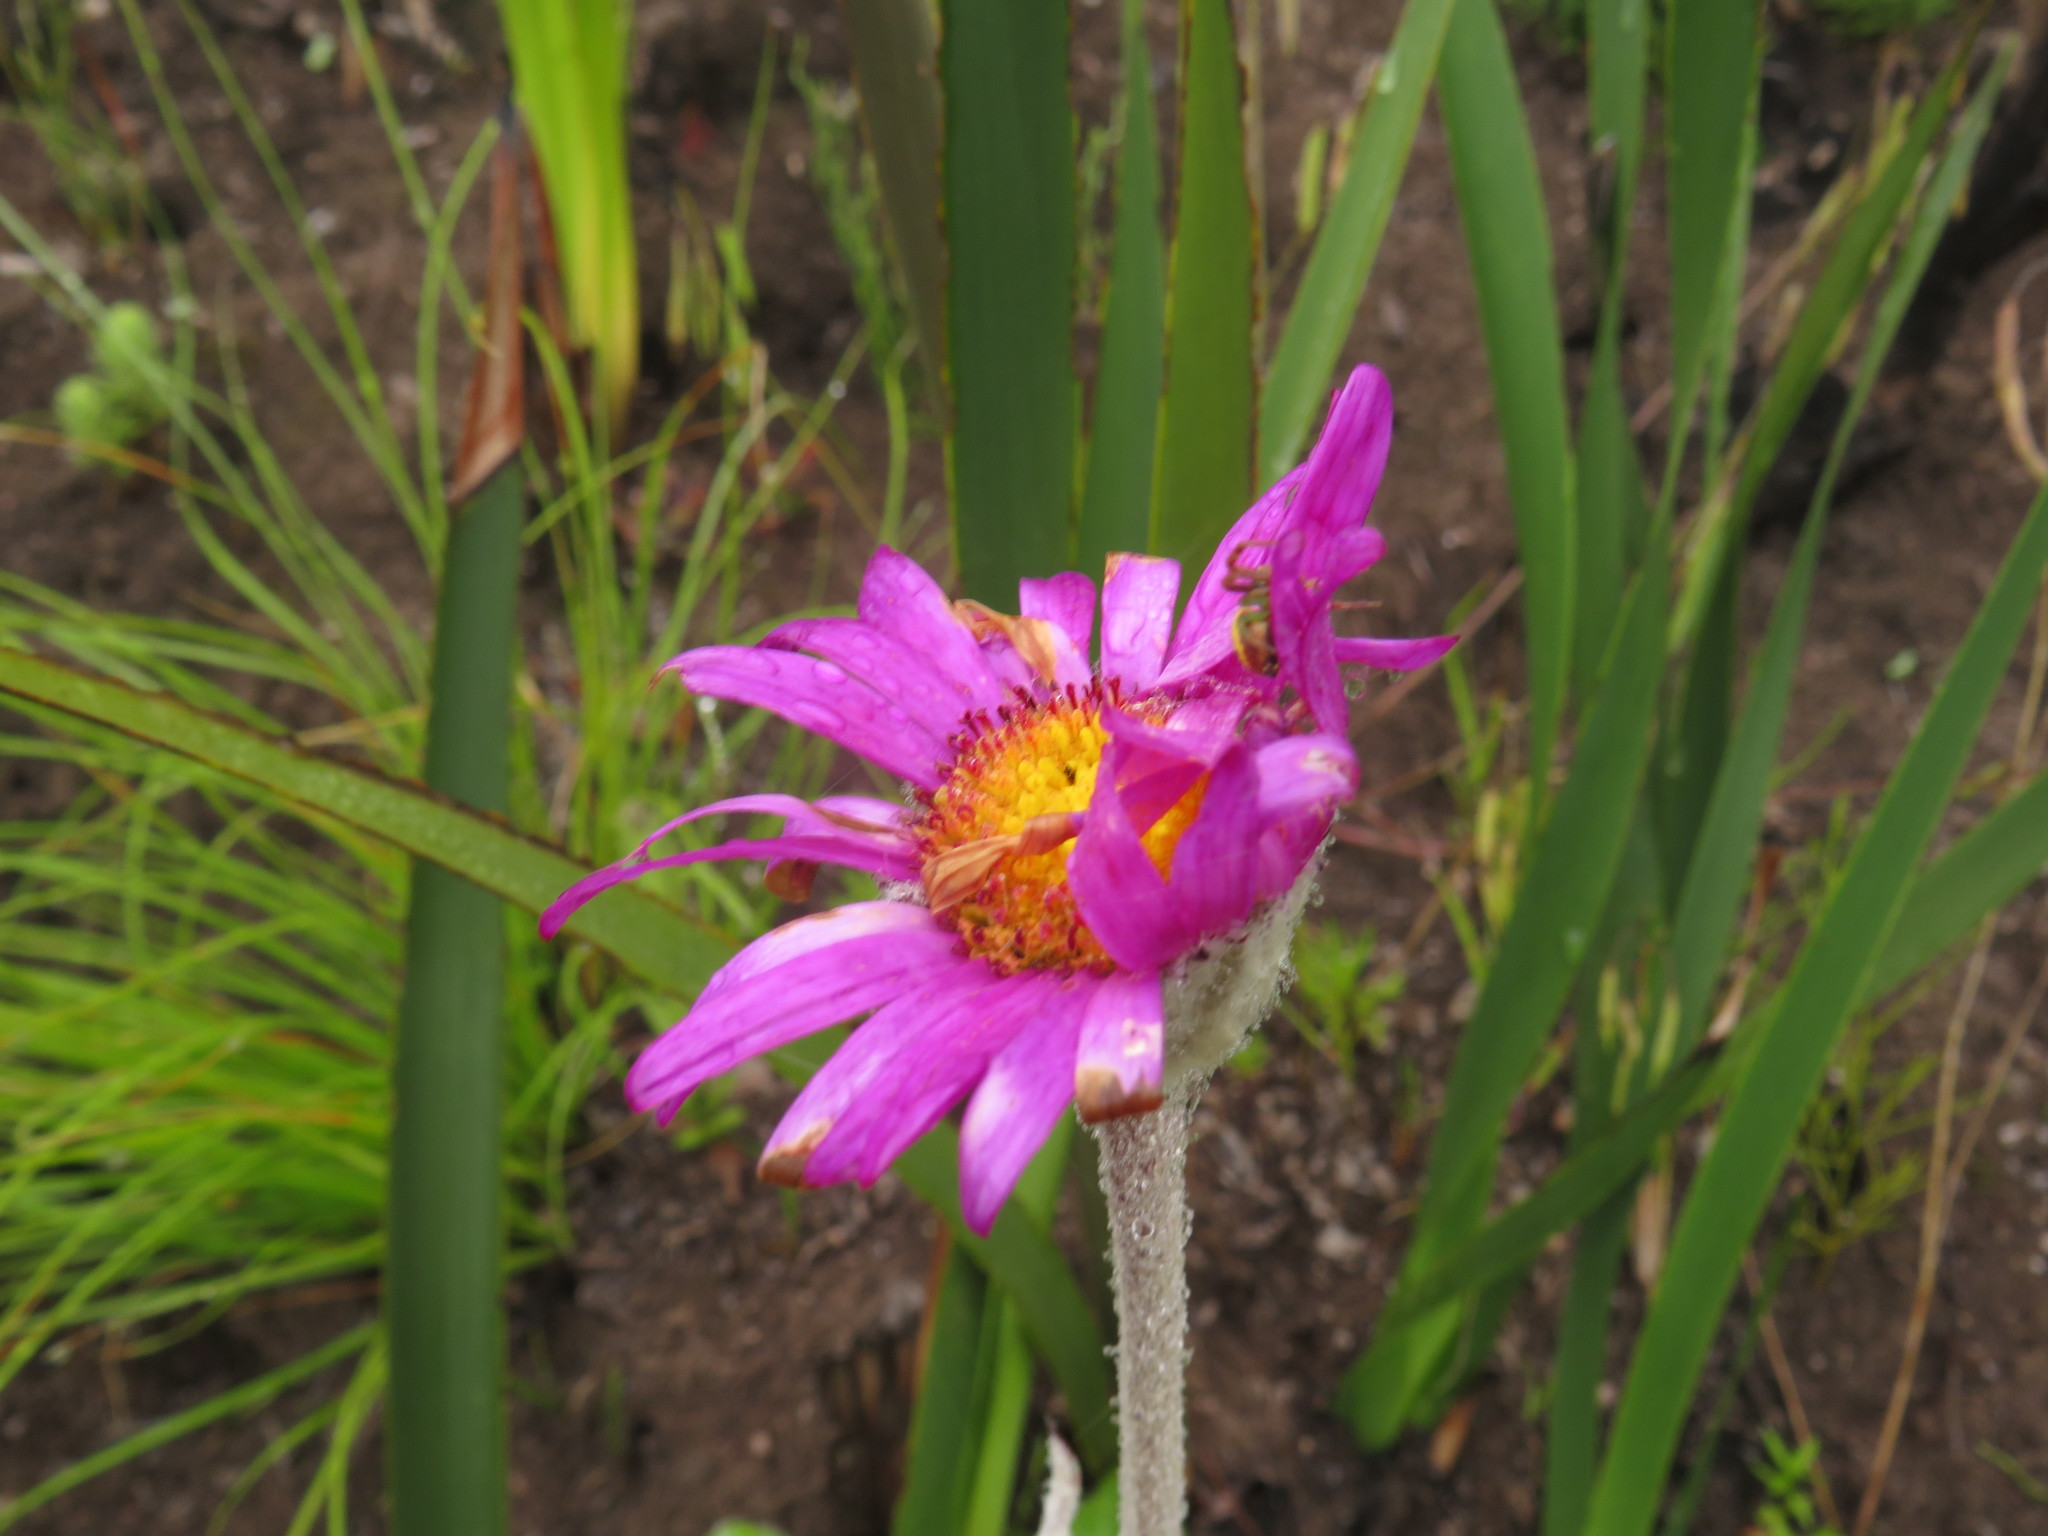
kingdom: Plantae
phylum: Tracheophyta
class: Magnoliopsida
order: Asterales
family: Asteraceae
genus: Mairia
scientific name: Mairia robusta
